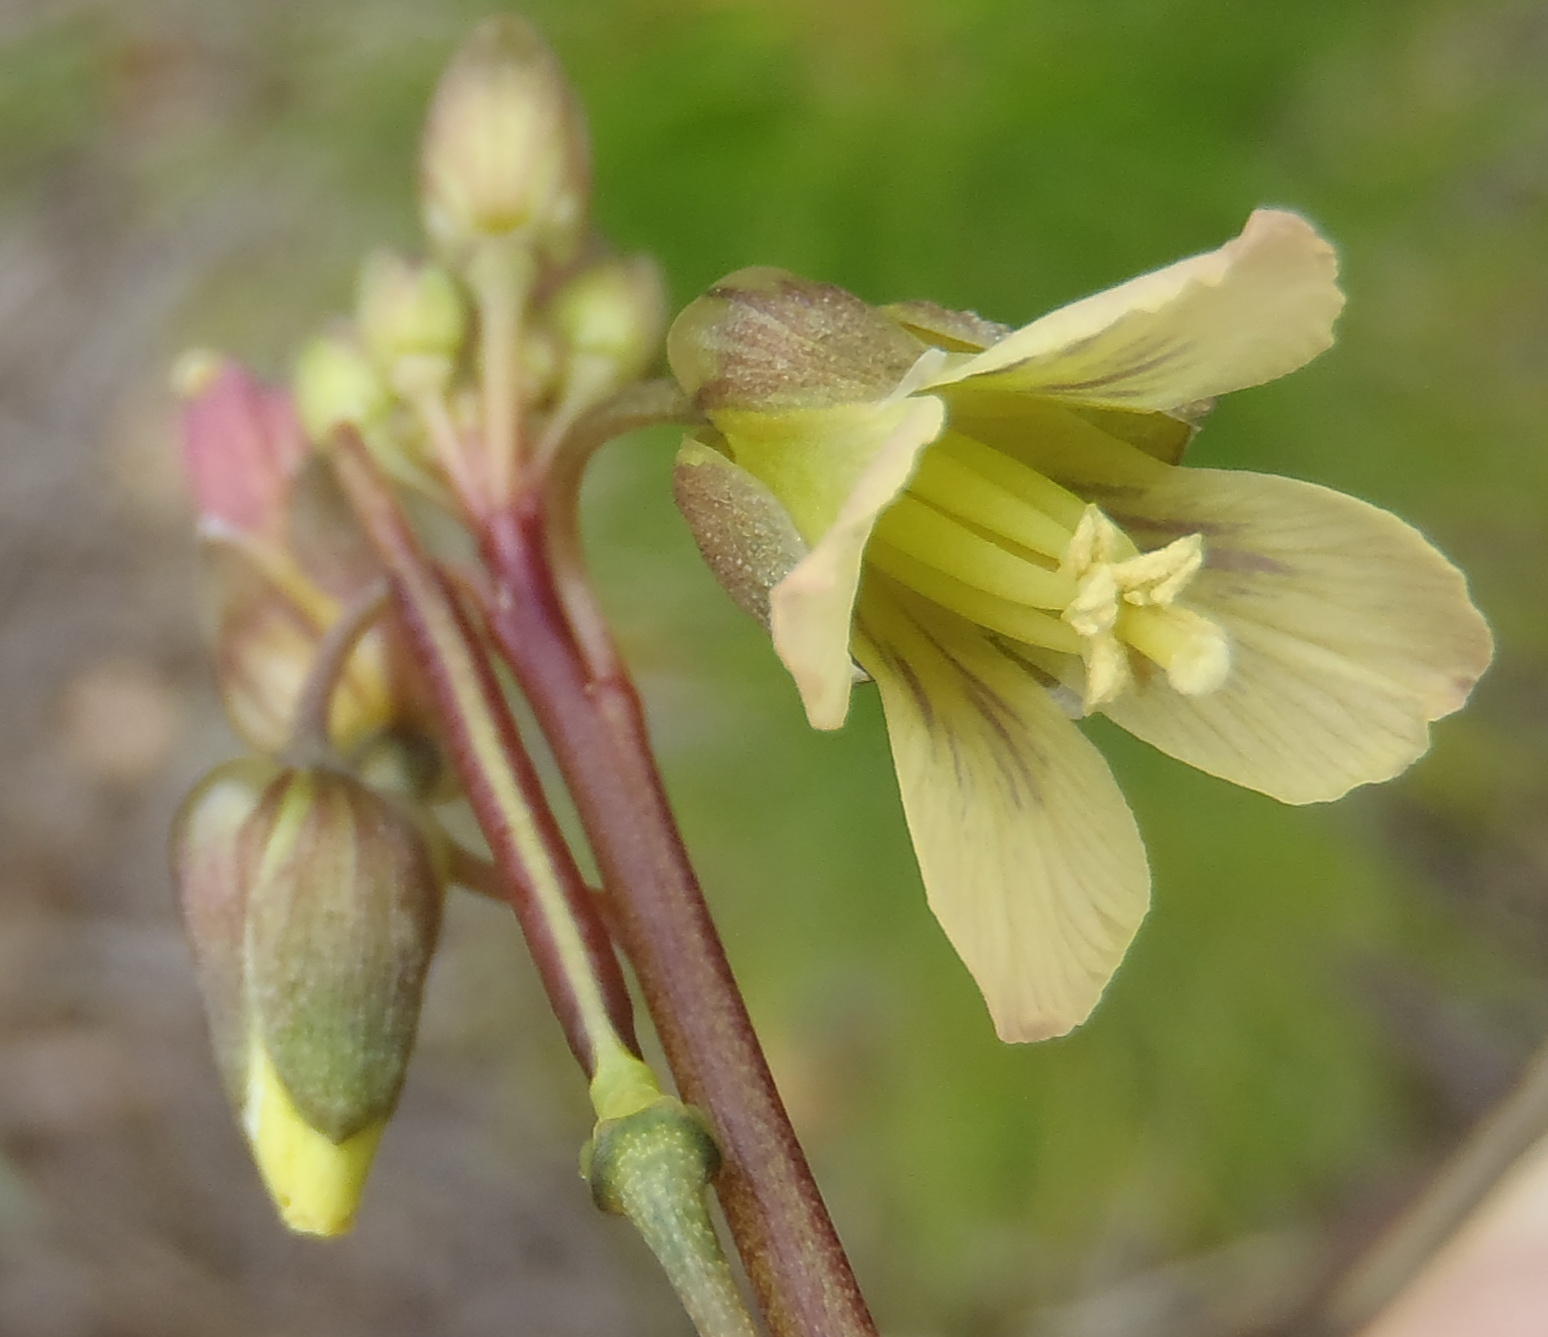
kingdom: Plantae
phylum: Tracheophyta
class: Magnoliopsida
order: Brassicales
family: Brassicaceae
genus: Heliophila
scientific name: Heliophila elongata
